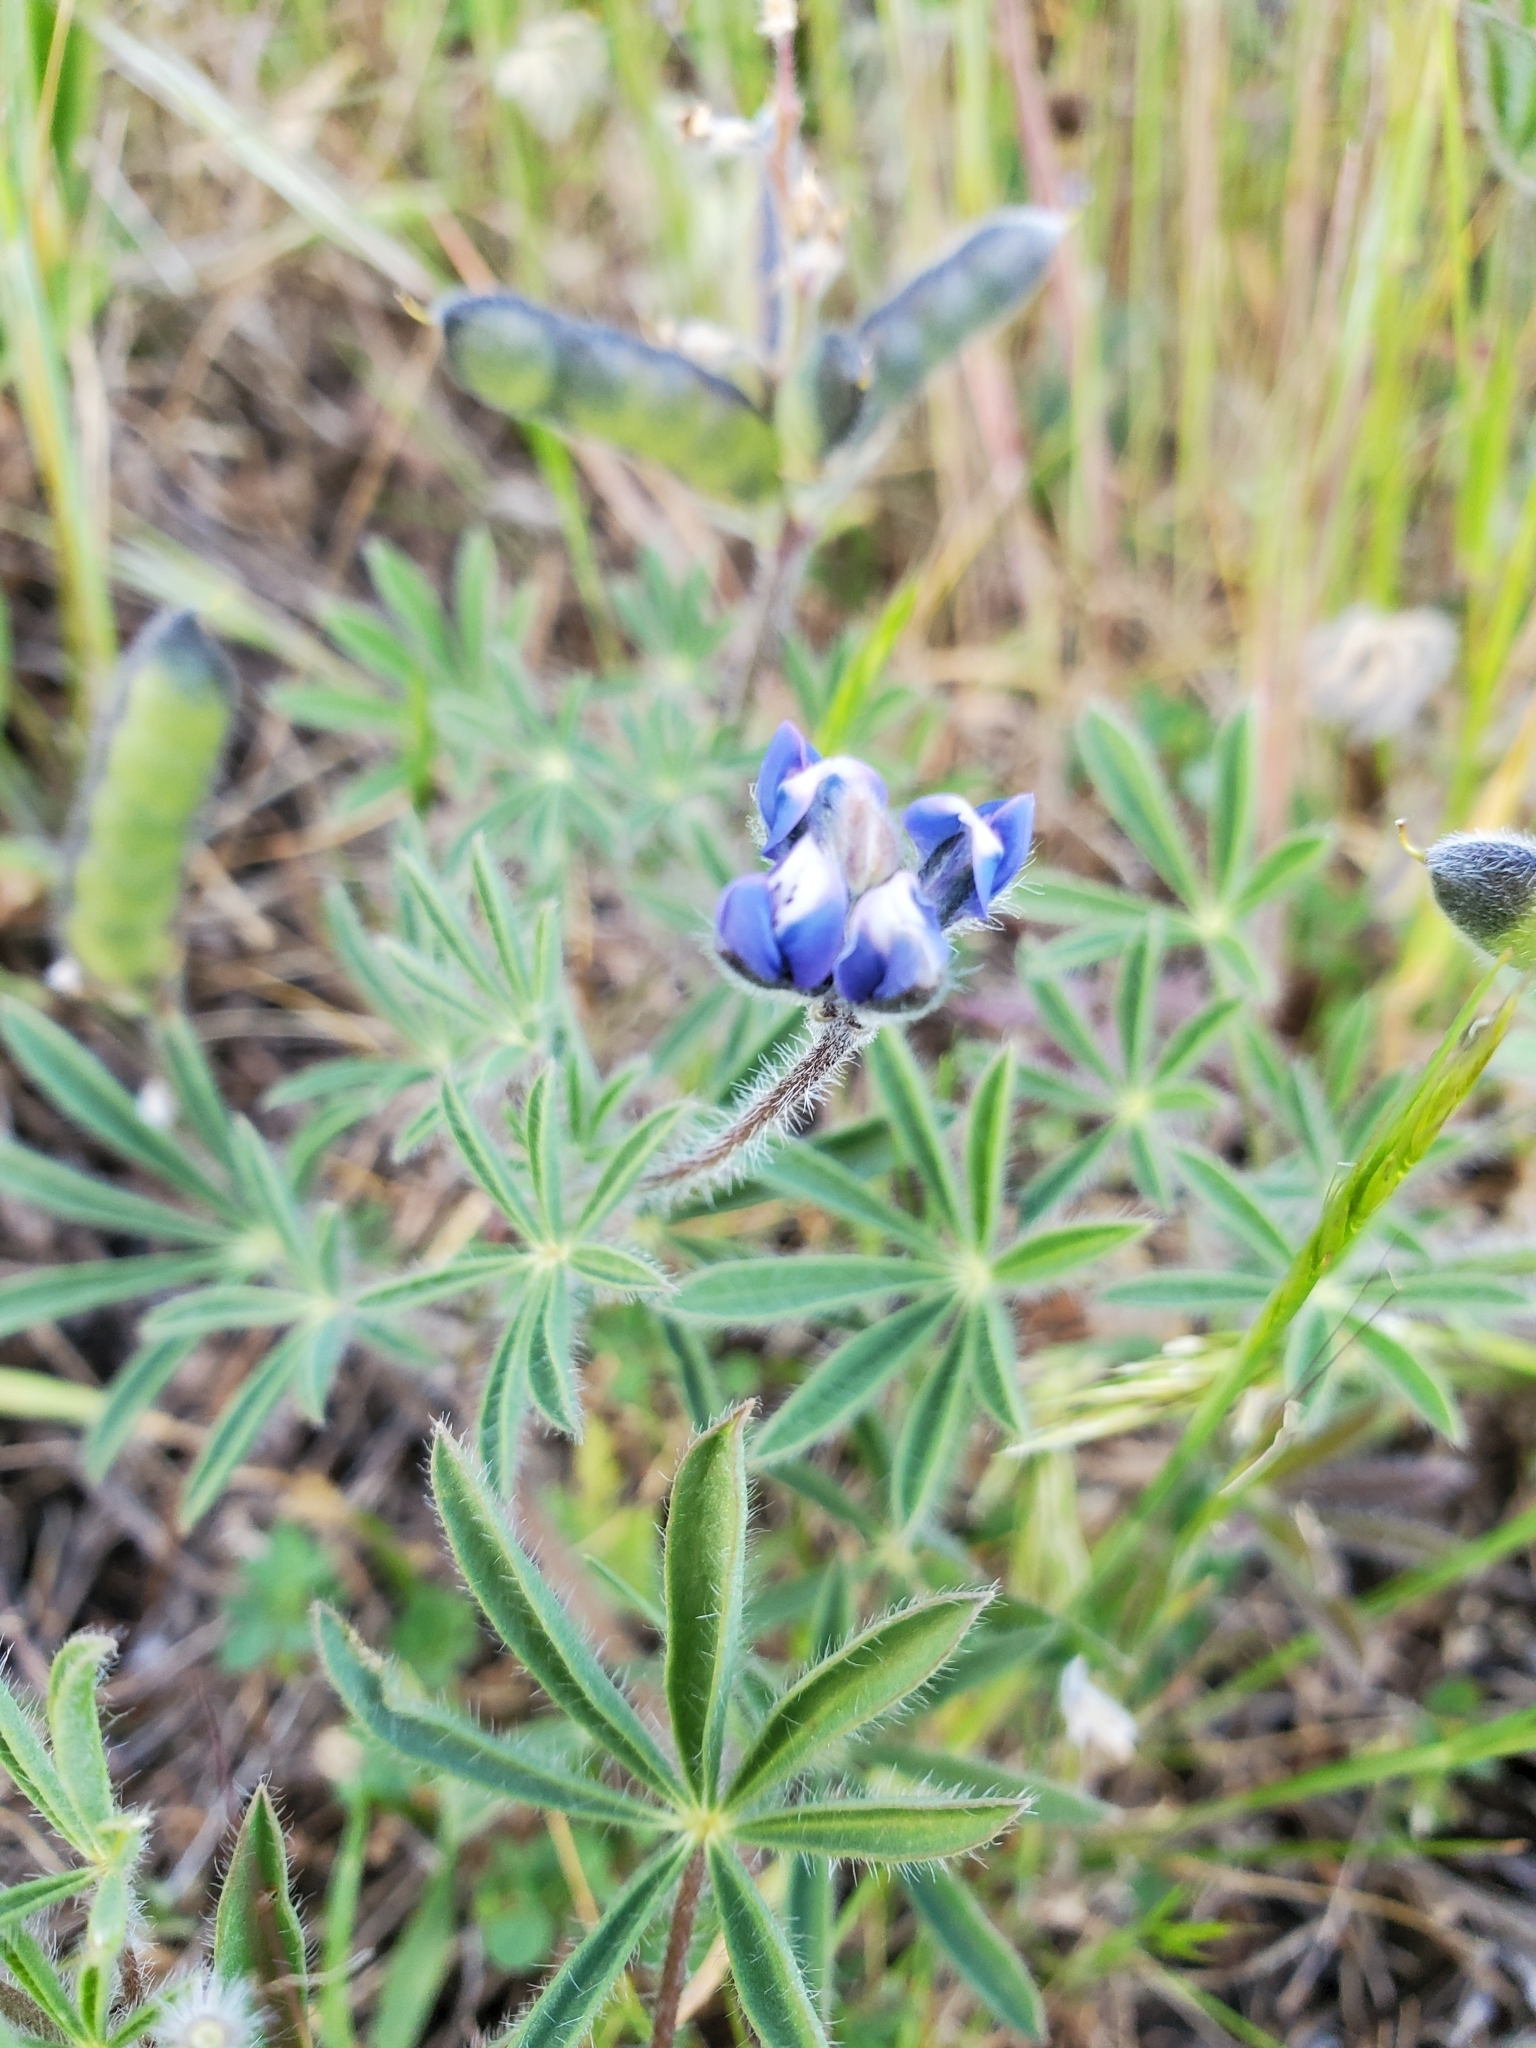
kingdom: Plantae
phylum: Tracheophyta
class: Magnoliopsida
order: Fabales
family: Fabaceae
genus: Lupinus
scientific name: Lupinus bicolor
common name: Miniature lupine
